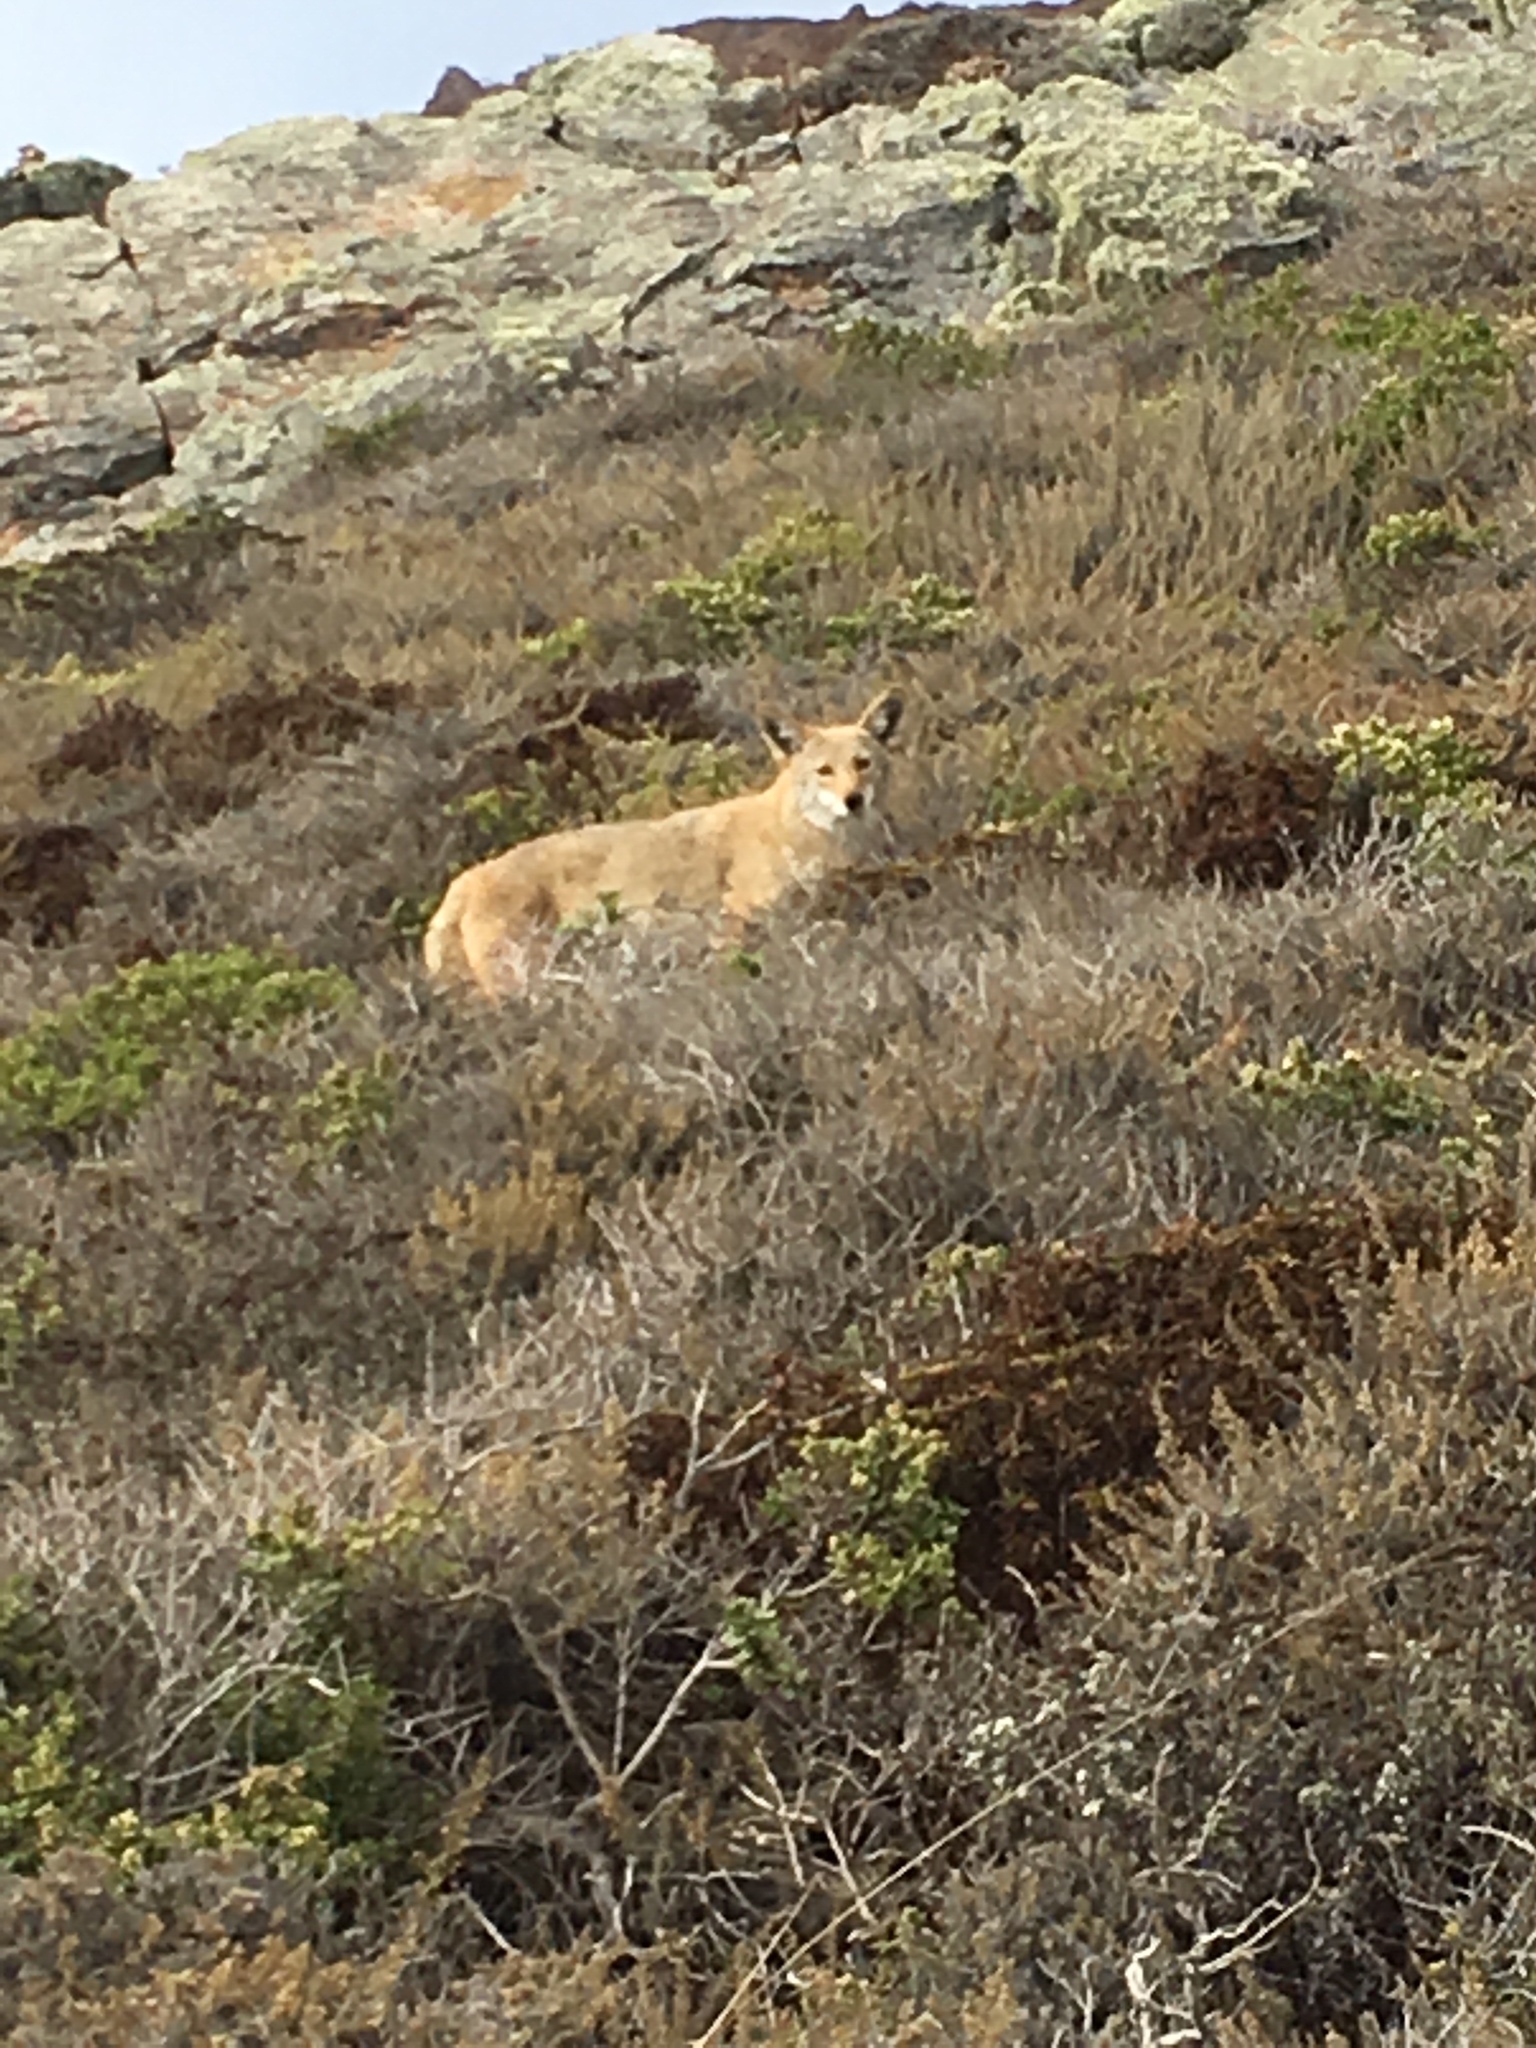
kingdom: Animalia
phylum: Chordata
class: Mammalia
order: Carnivora
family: Canidae
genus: Canis
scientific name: Canis latrans
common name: Coyote
